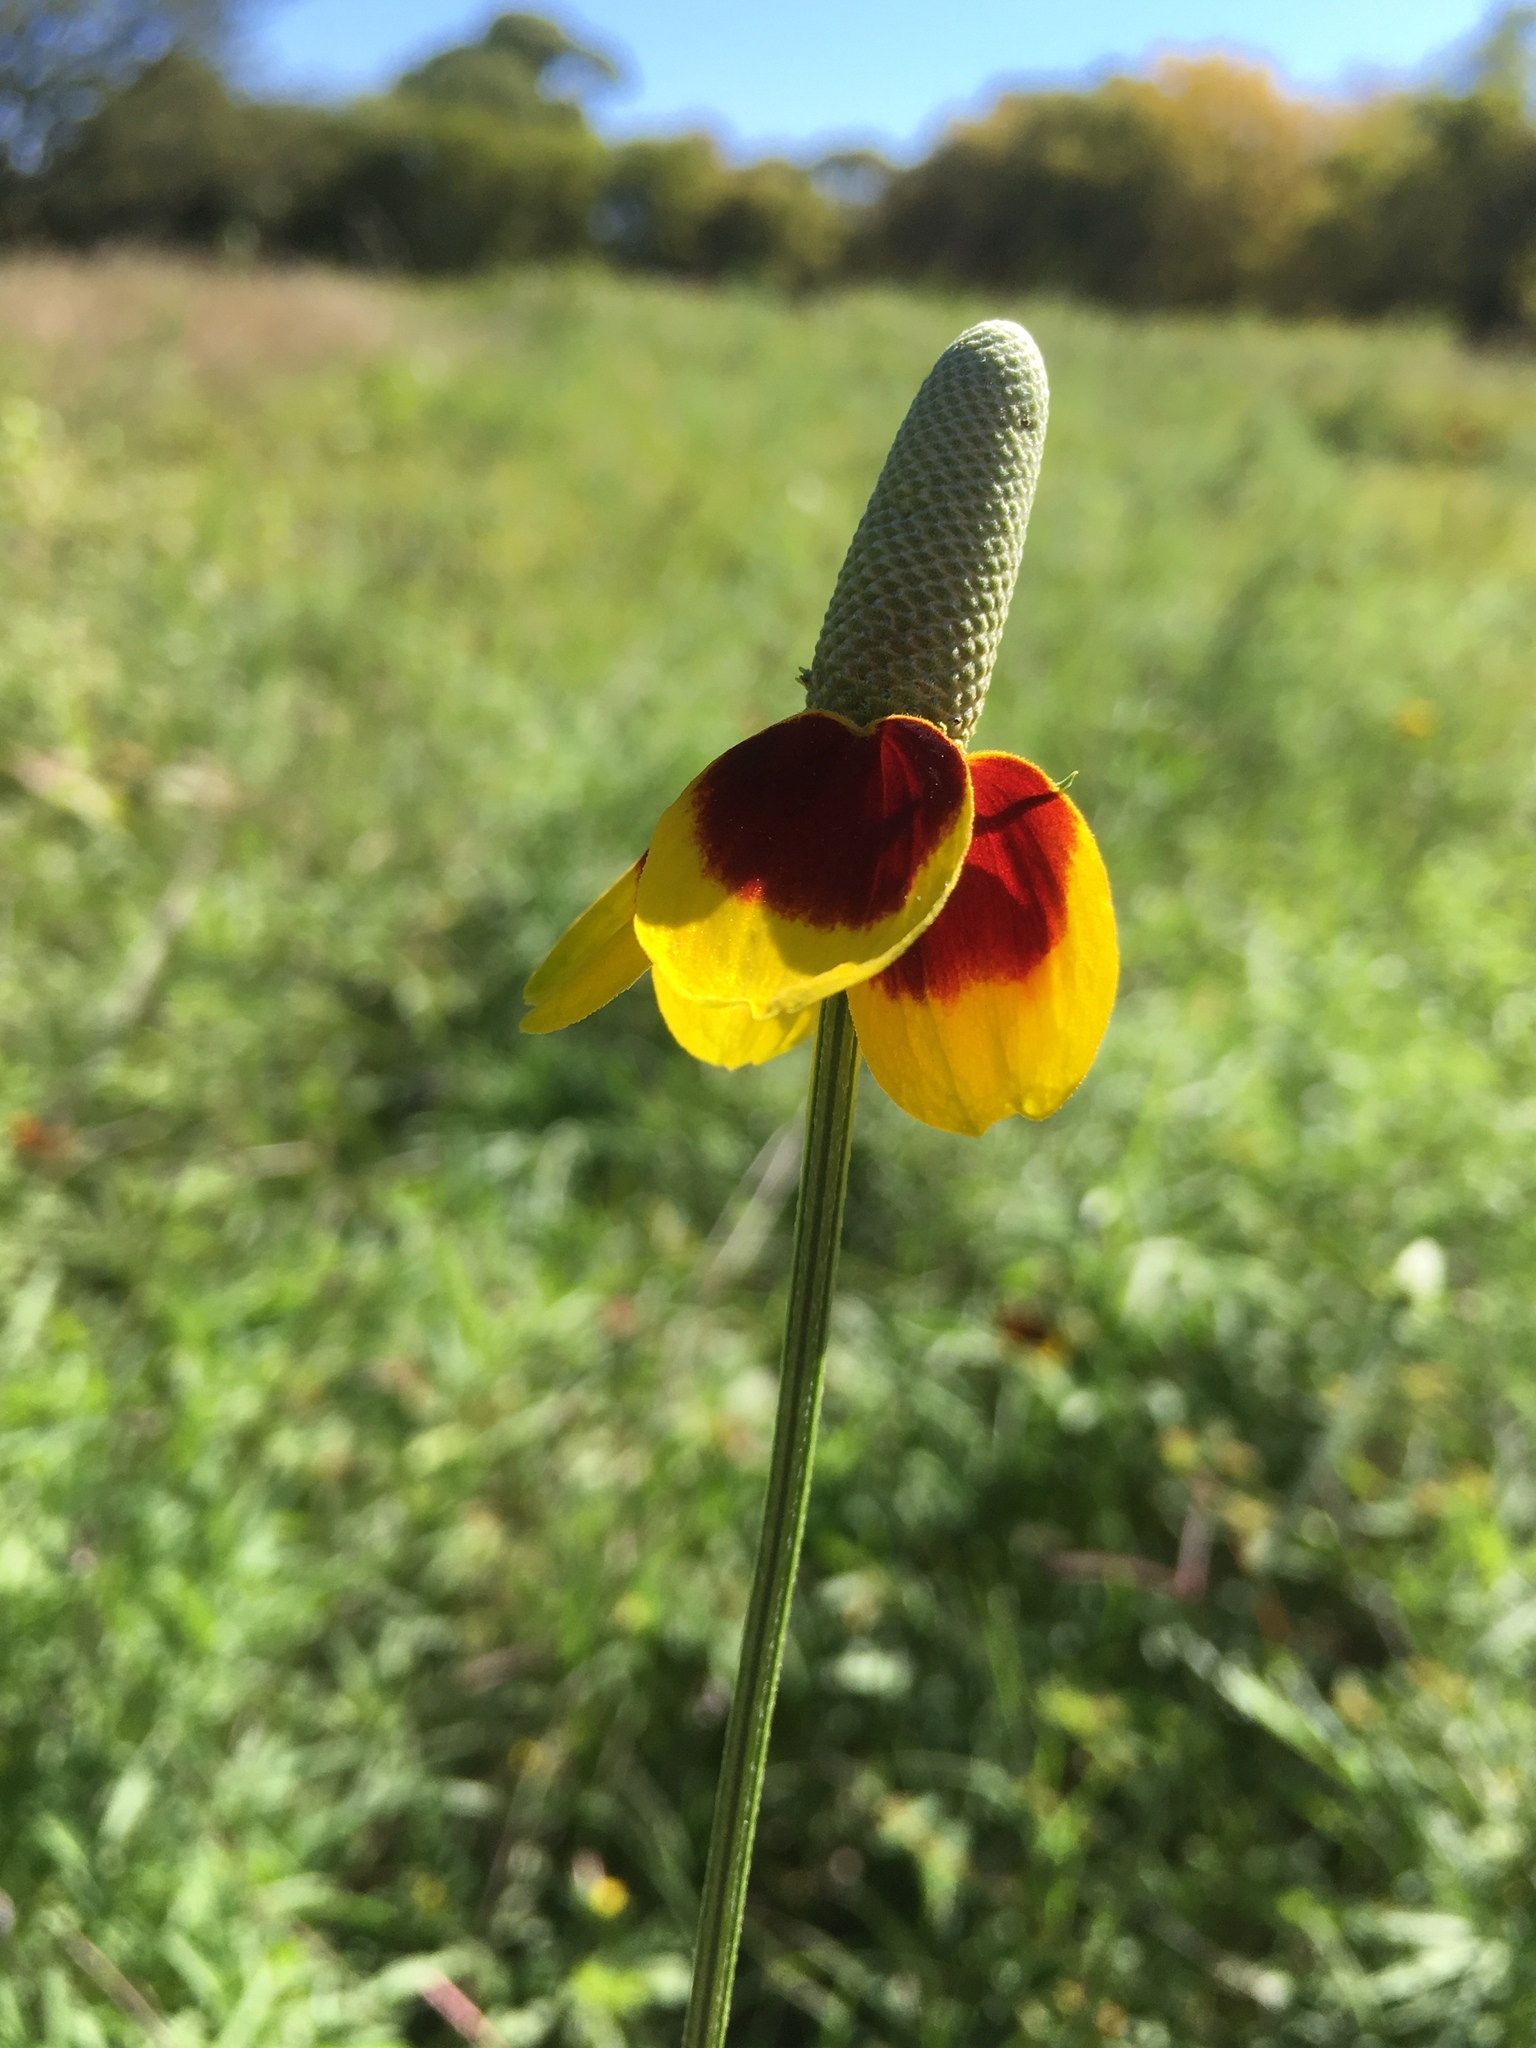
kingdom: Plantae
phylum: Tracheophyta
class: Magnoliopsida
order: Asterales
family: Asteraceae
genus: Ratibida
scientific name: Ratibida columnifera
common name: Prairie coneflower
